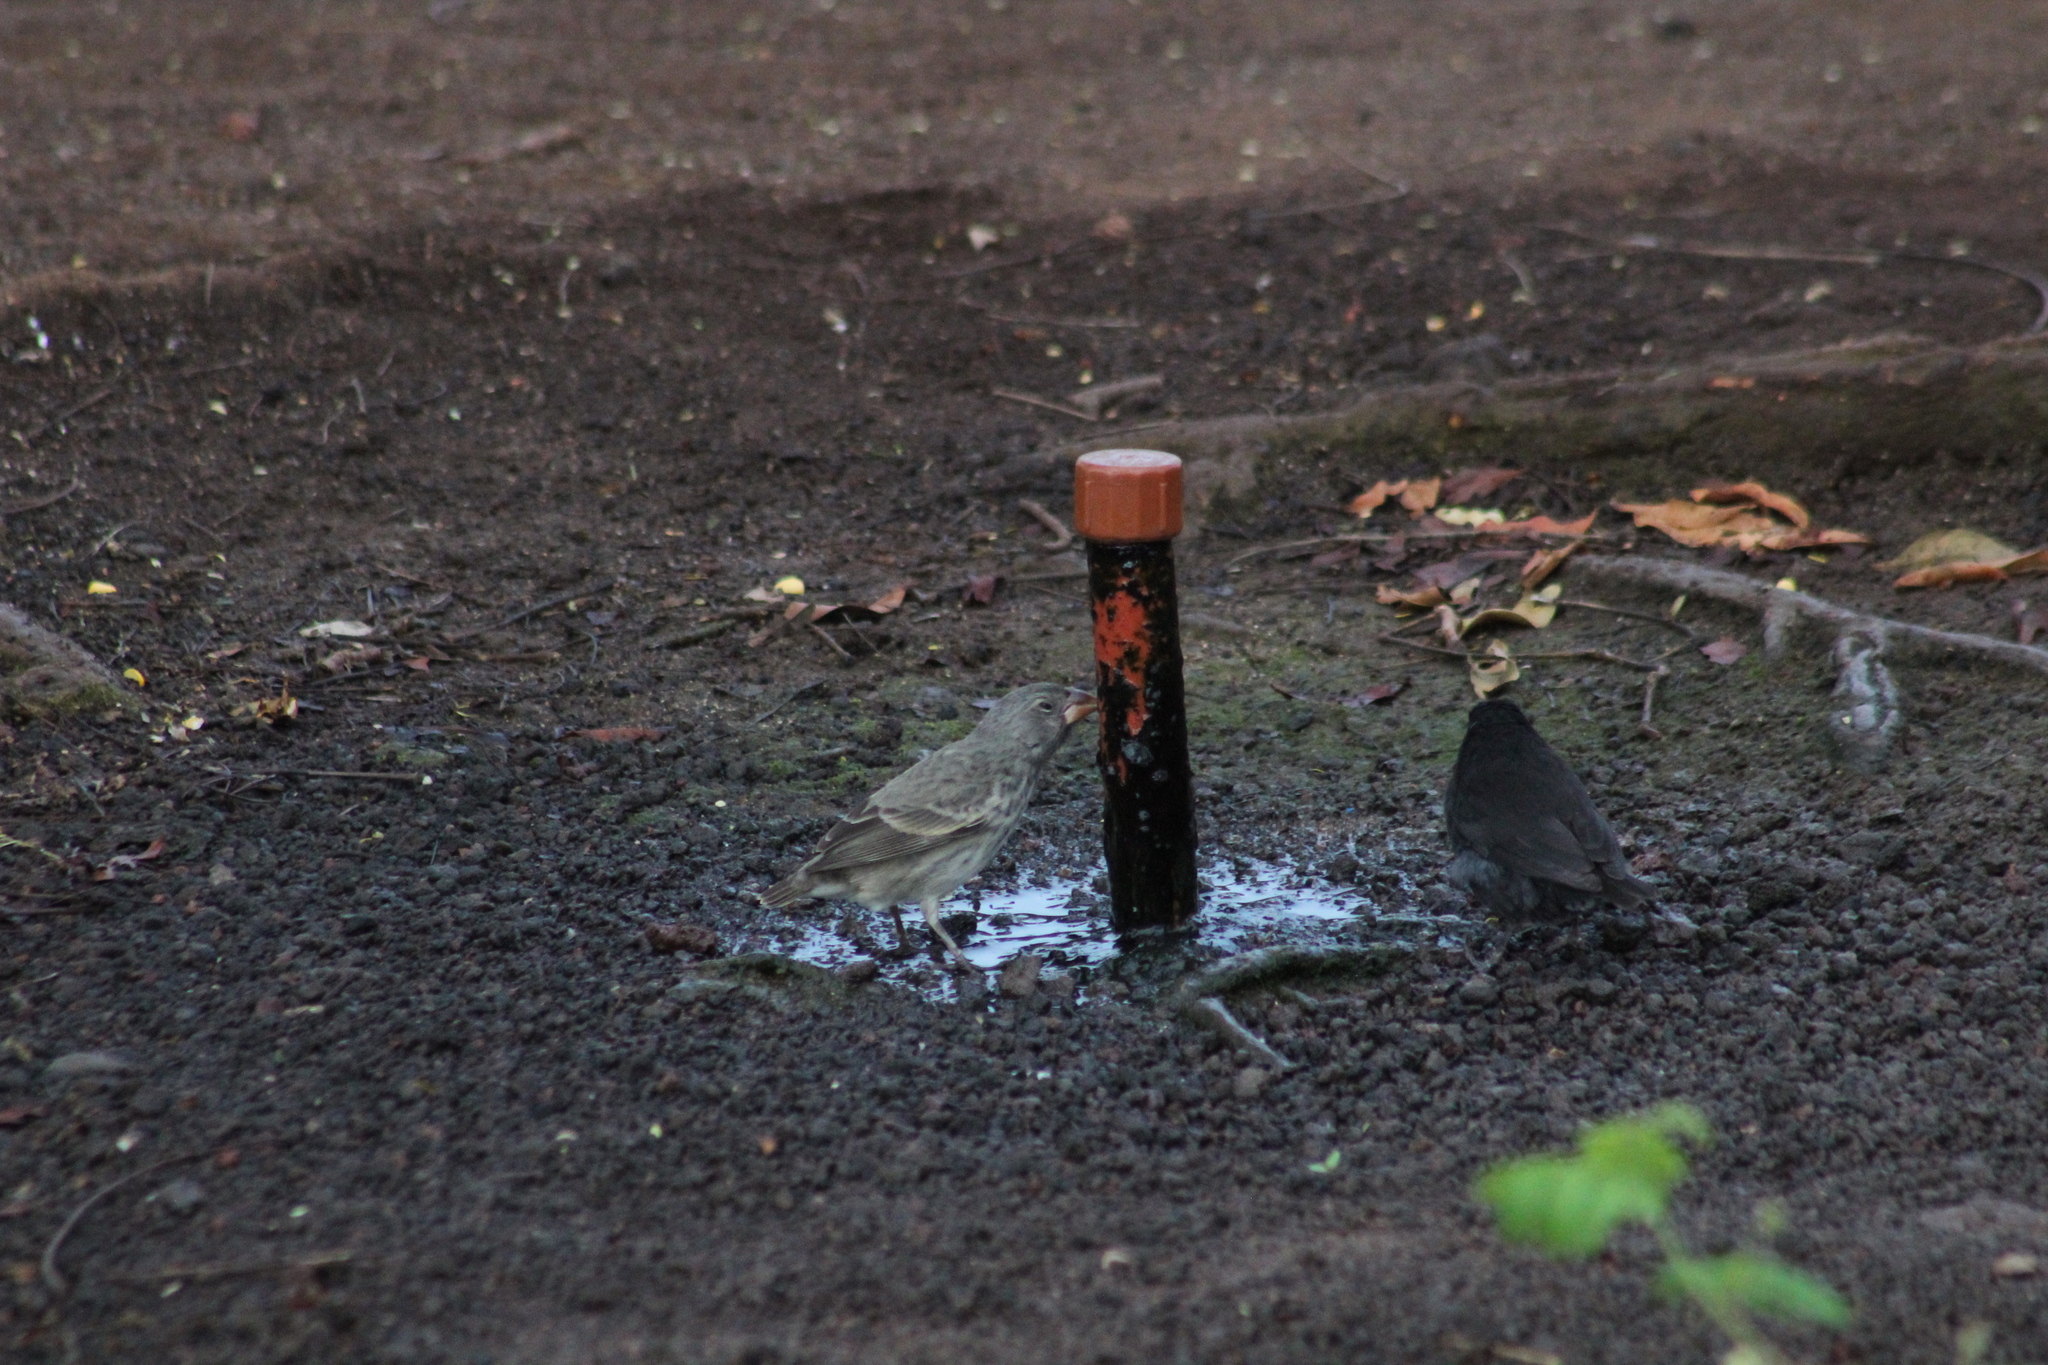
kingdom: Animalia
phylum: Chordata
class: Aves
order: Passeriformes
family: Thraupidae
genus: Geospiza
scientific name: Geospiza fortis
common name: Medium ground finch
